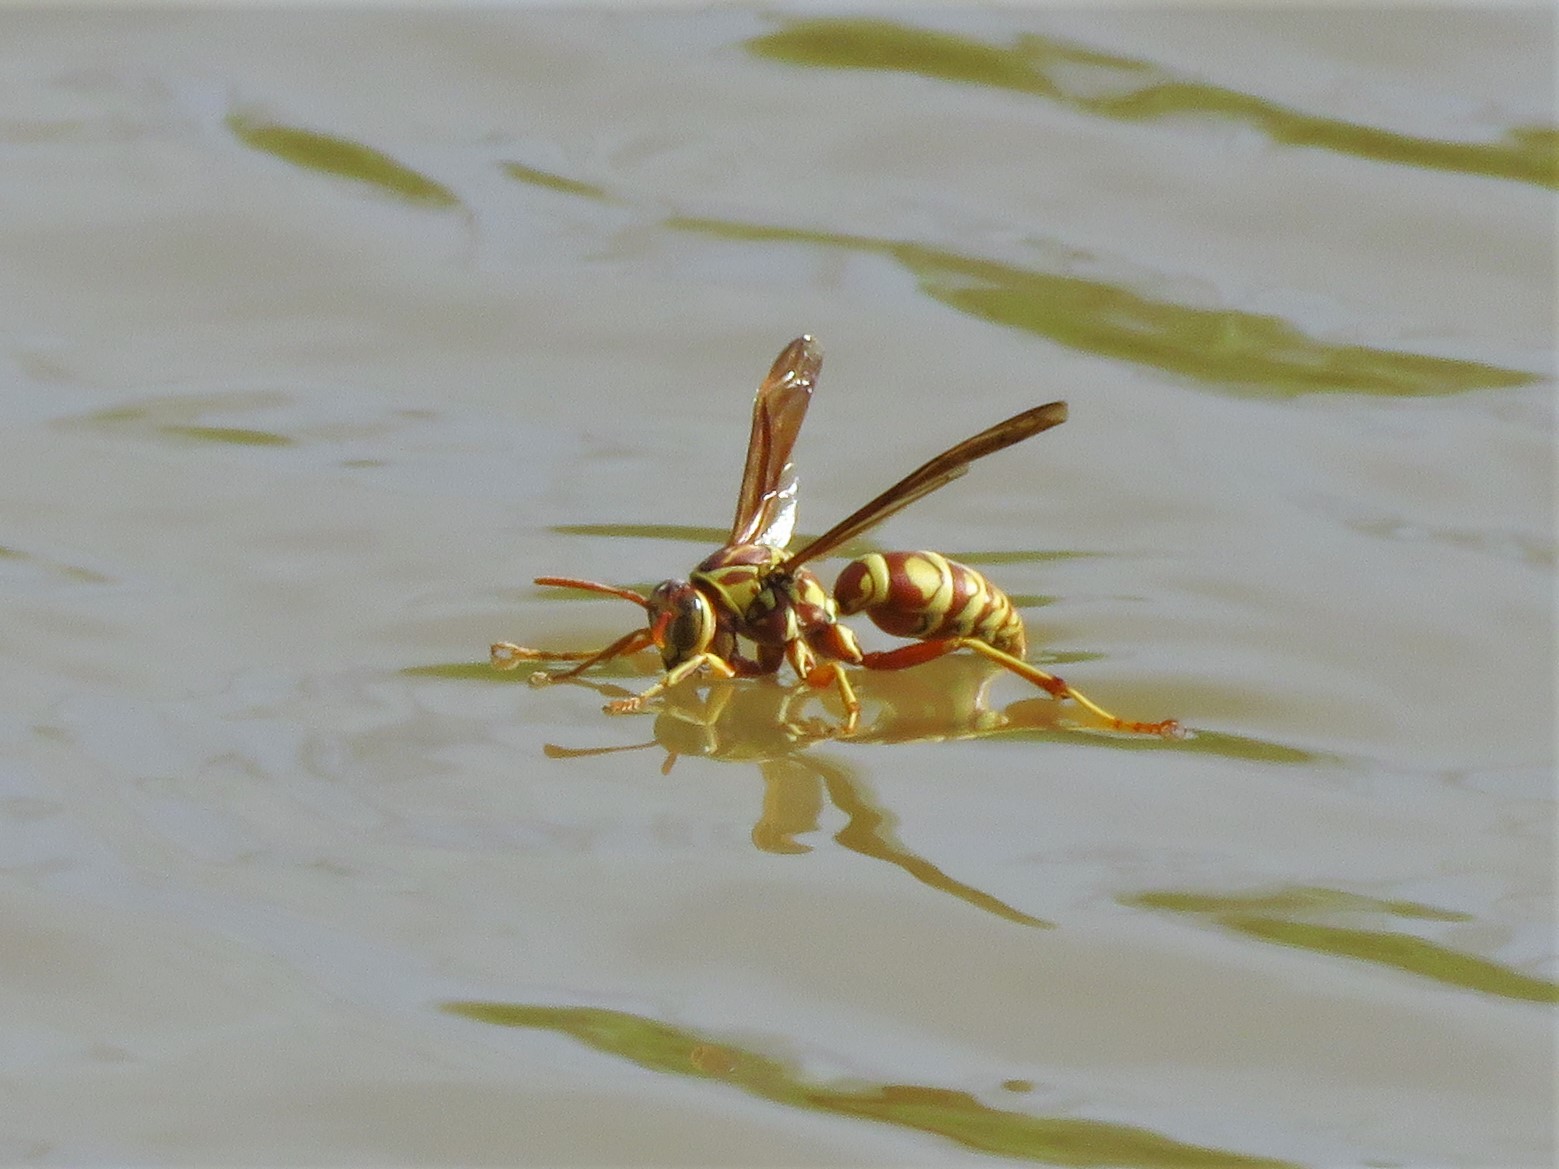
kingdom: Animalia
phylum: Arthropoda
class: Insecta
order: Hymenoptera
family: Eumenidae
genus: Polistes
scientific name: Polistes apachus
